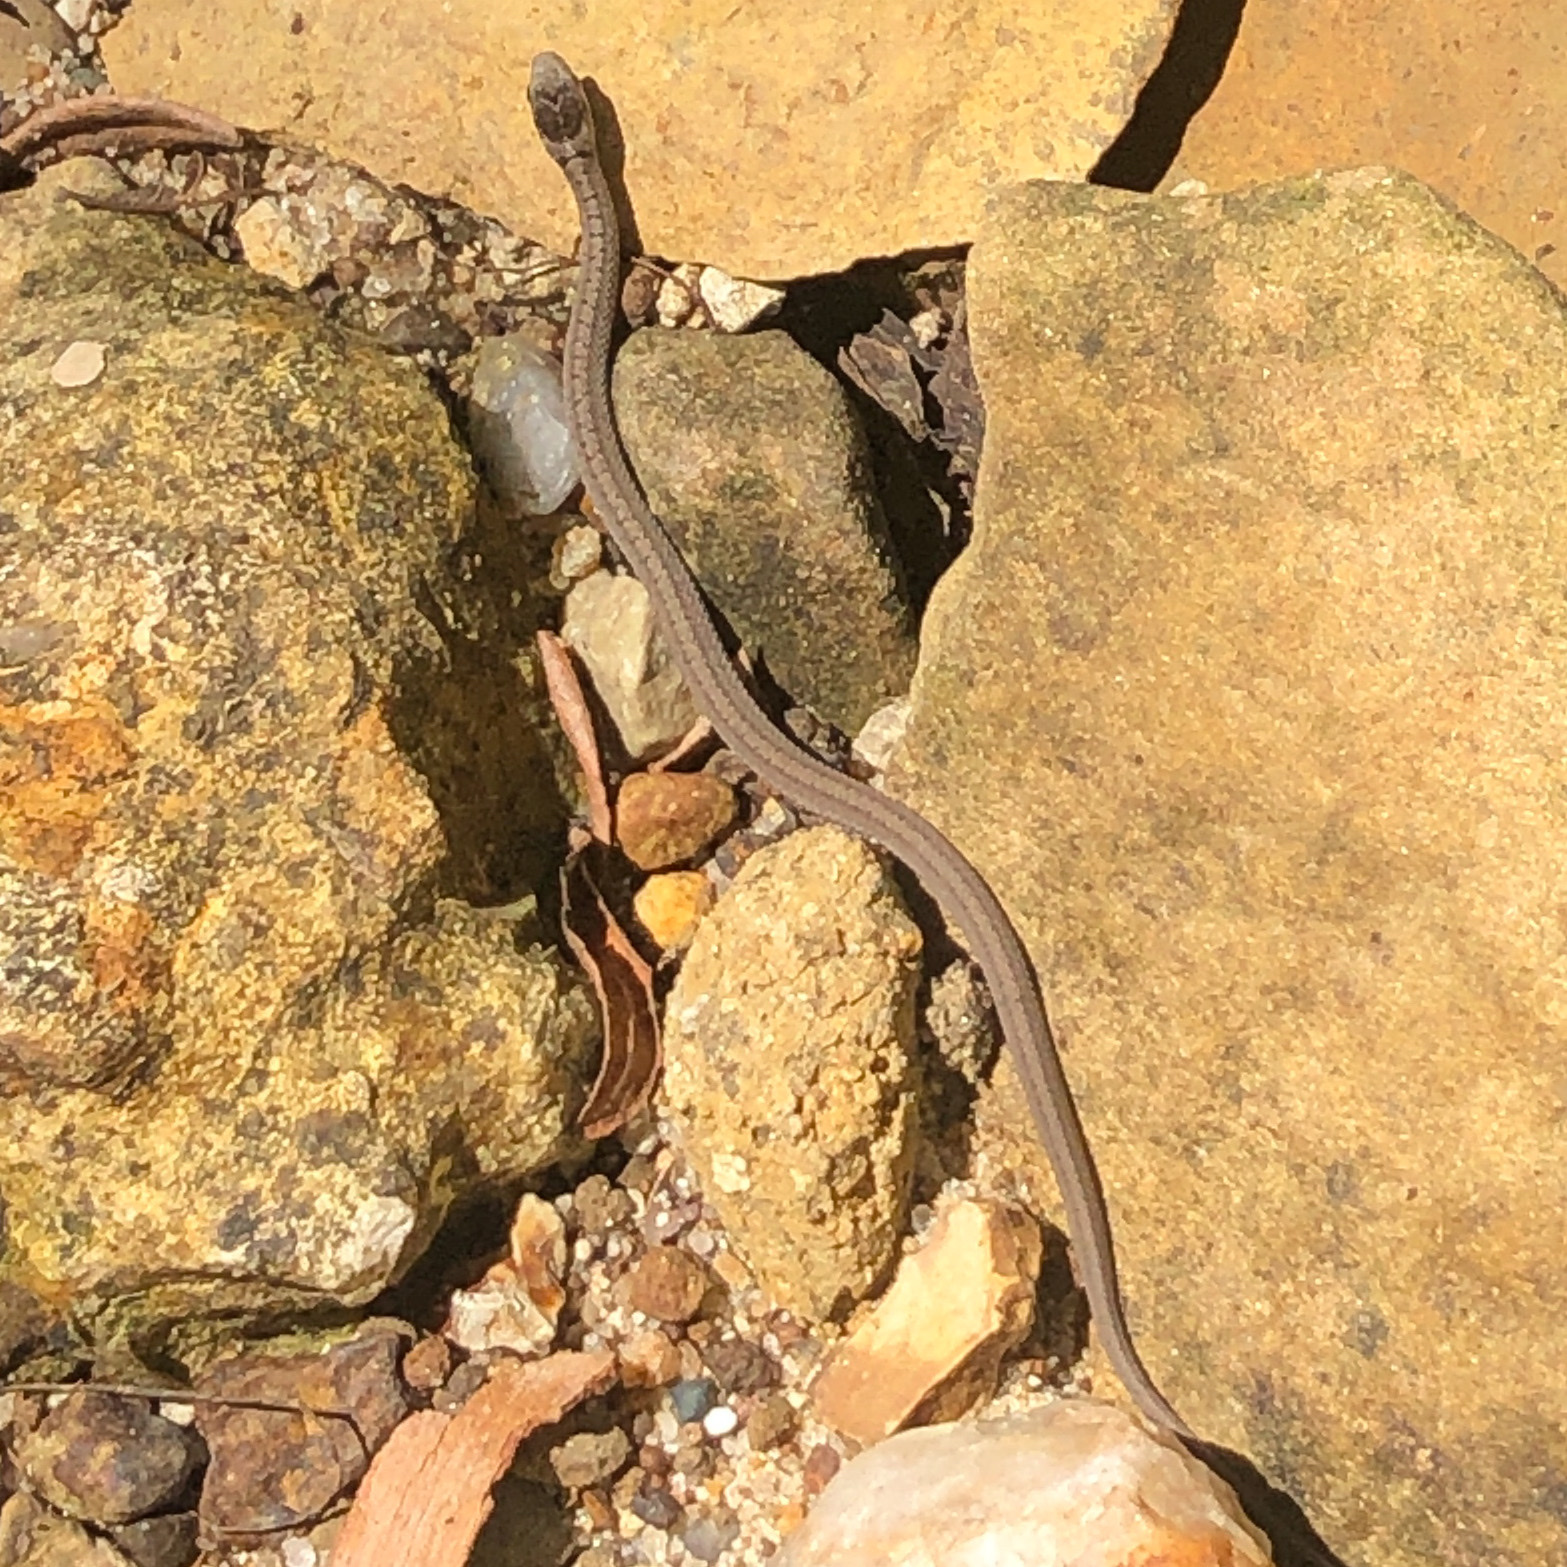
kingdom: Animalia
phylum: Chordata
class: Squamata
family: Colubridae
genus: Storeria
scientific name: Storeria dekayi
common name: (dekay’s) brown snake
